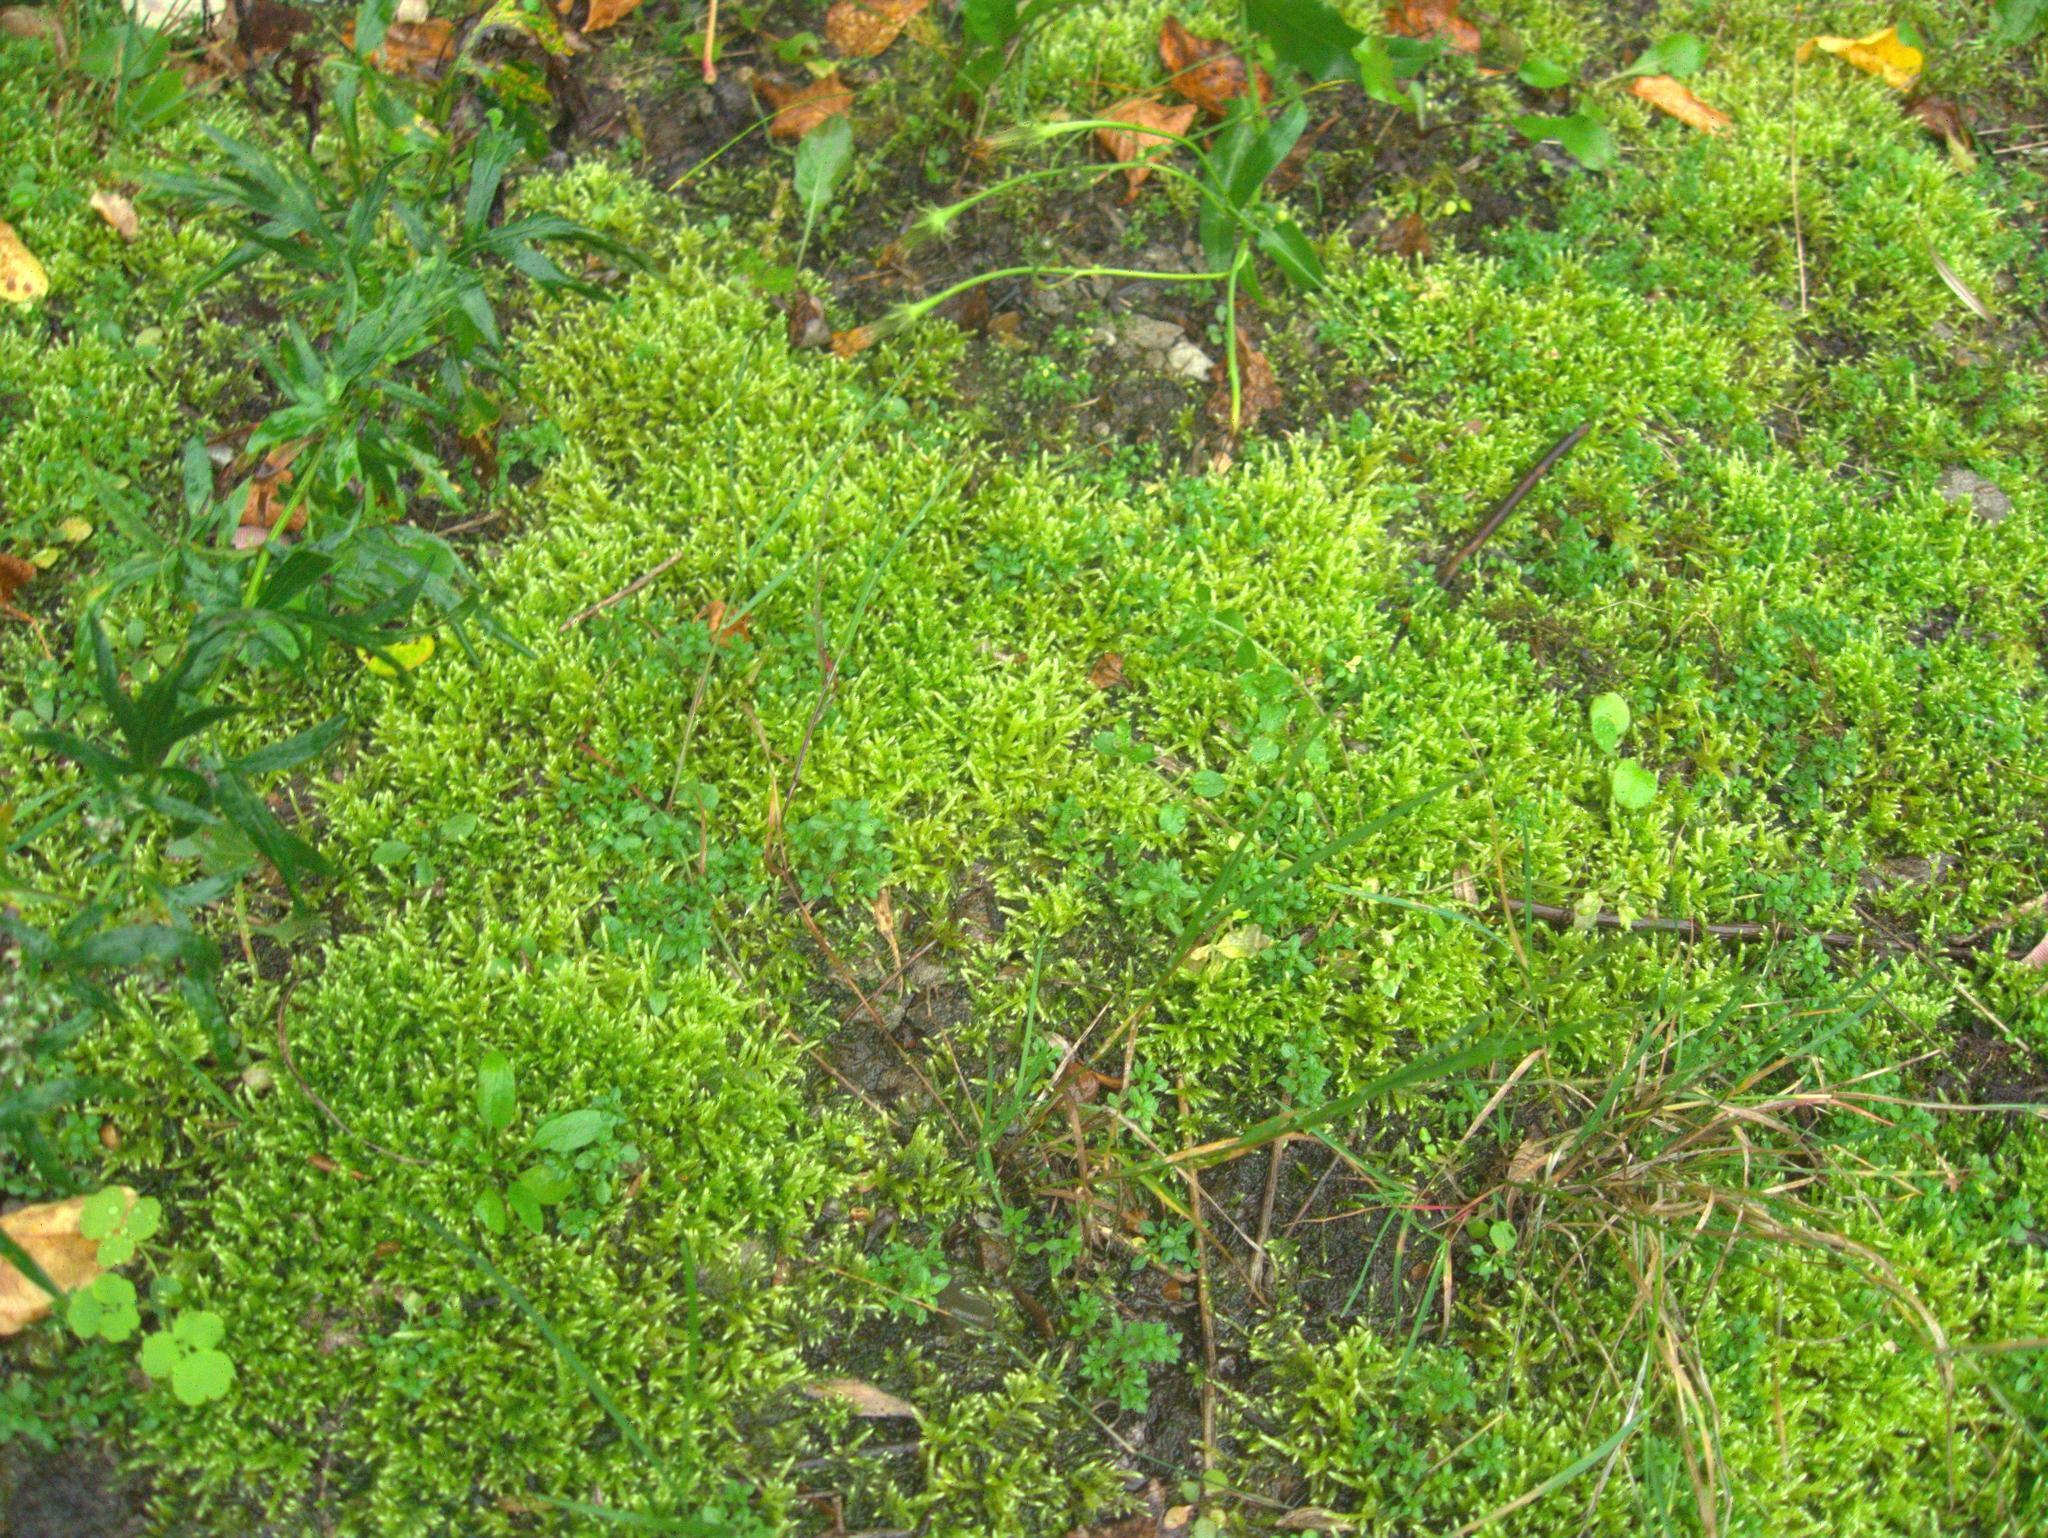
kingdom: Plantae
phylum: Tracheophyta
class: Magnoliopsida
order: Ranunculales
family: Papaveraceae
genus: Chelidonium
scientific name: Chelidonium majus
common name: Greater celandine
